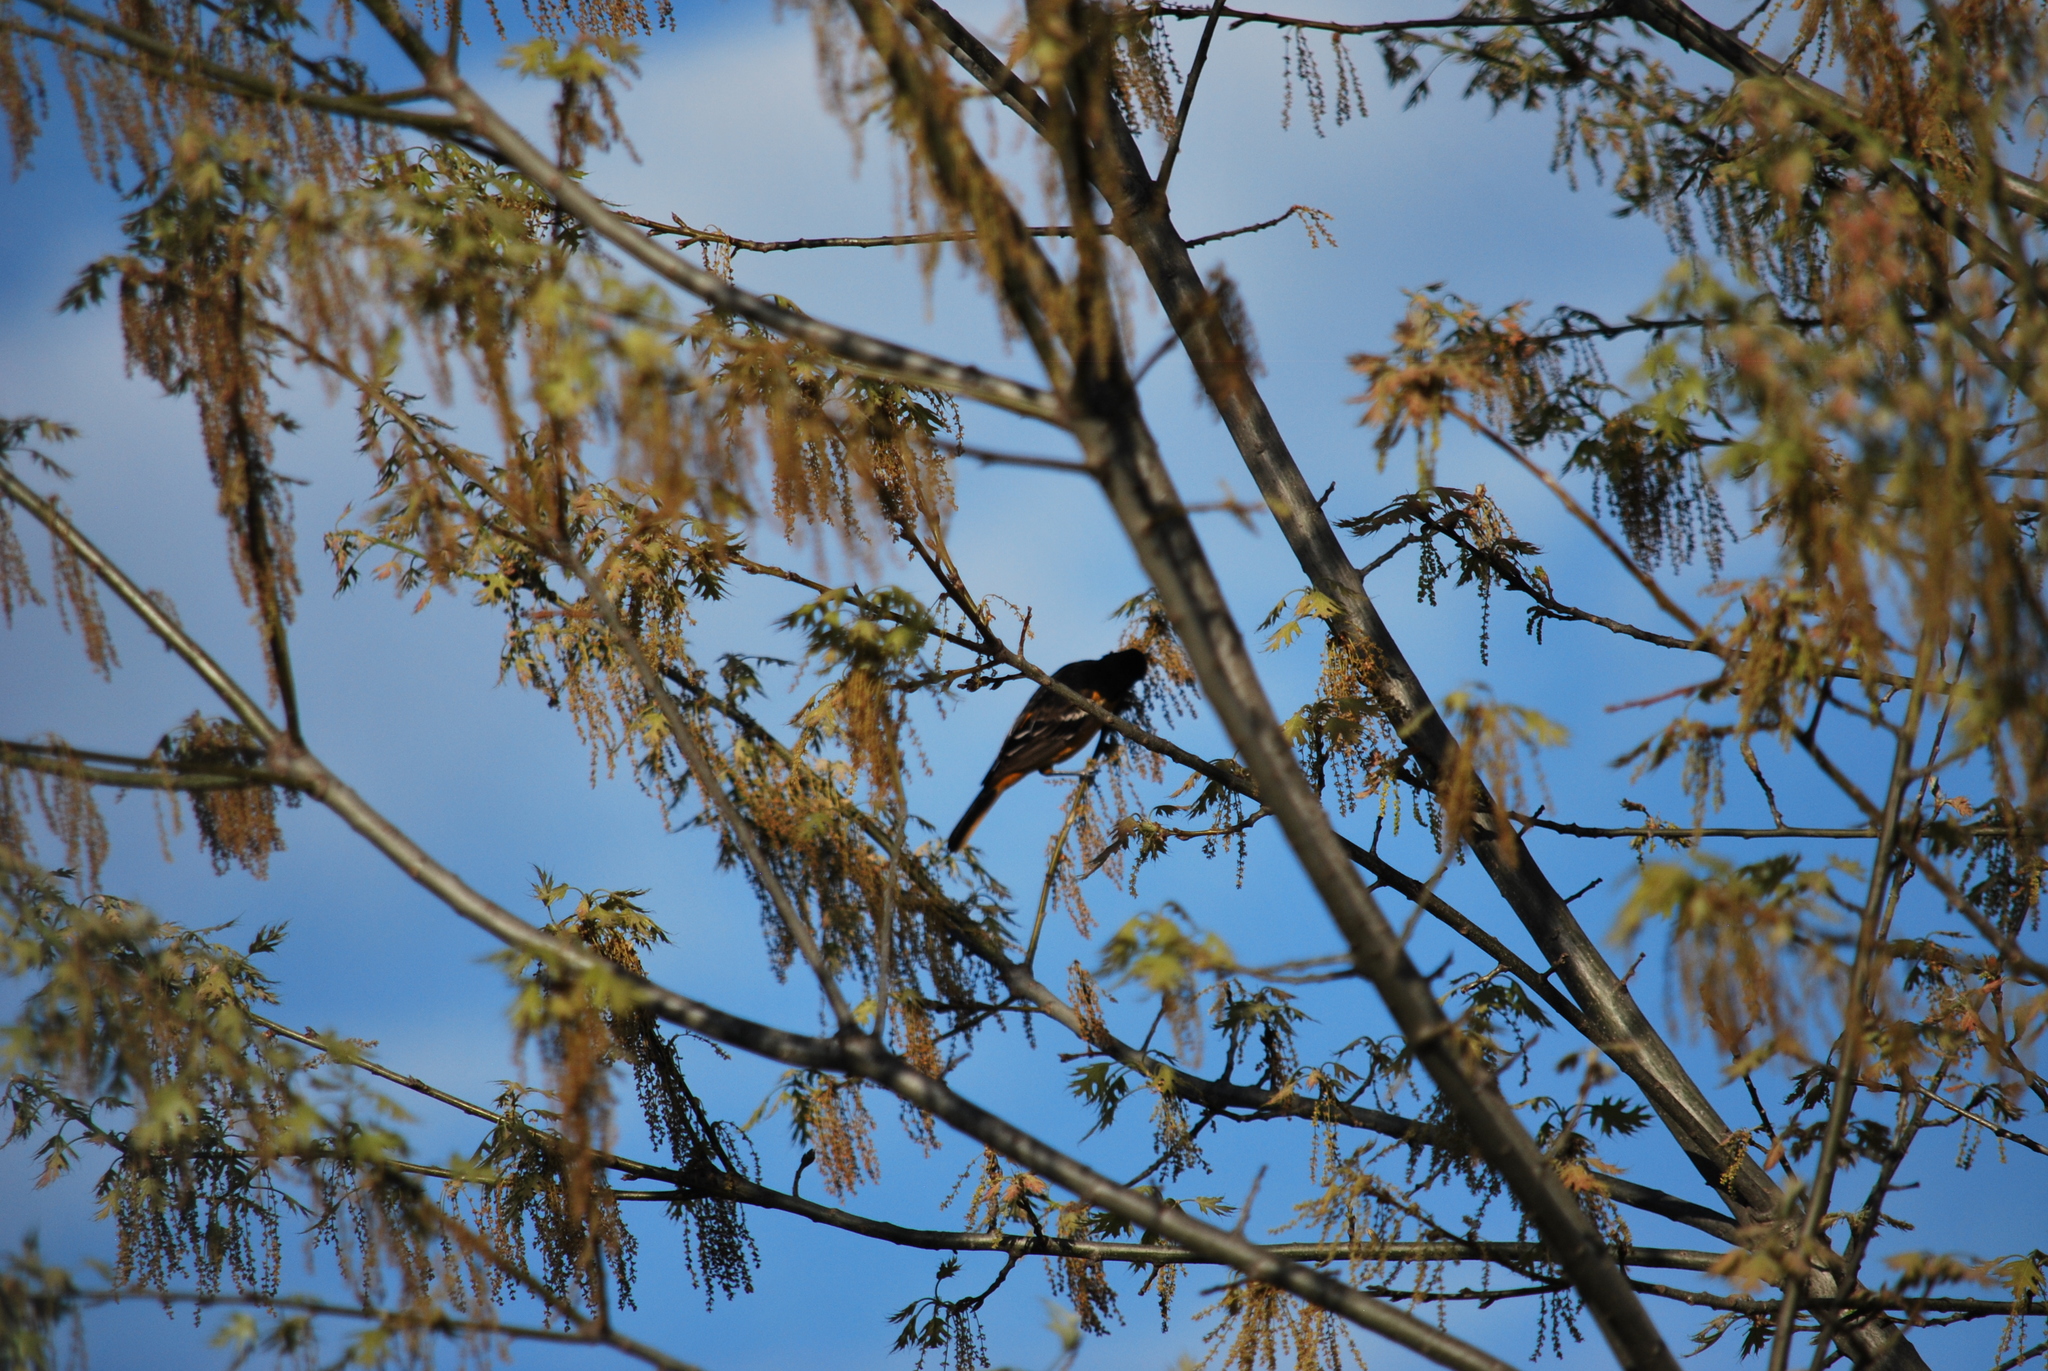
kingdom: Animalia
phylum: Chordata
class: Aves
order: Passeriformes
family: Icteridae
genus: Icterus
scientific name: Icterus galbula
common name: Baltimore oriole
